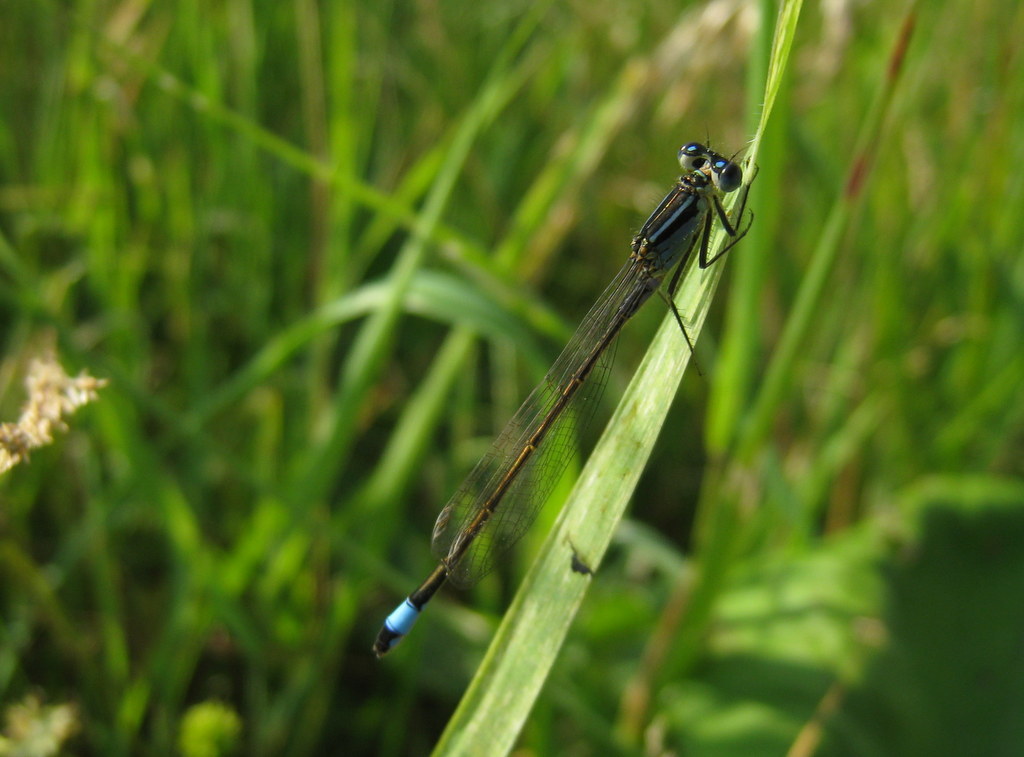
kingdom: Animalia
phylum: Arthropoda
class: Insecta
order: Odonata
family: Coenagrionidae
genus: Ischnura
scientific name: Ischnura elegans
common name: Blue-tailed damselfly
